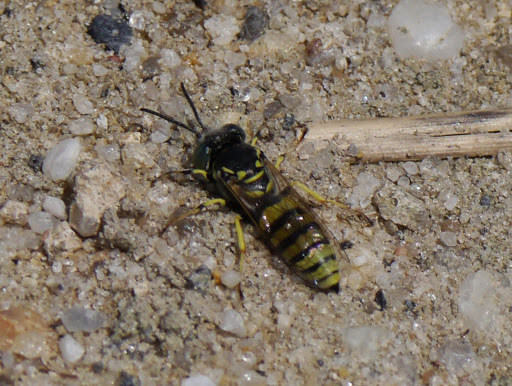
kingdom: Animalia
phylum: Arthropoda
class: Insecta
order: Hymenoptera
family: Crabronidae
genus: Microbembex
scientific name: Microbembex monodonta
